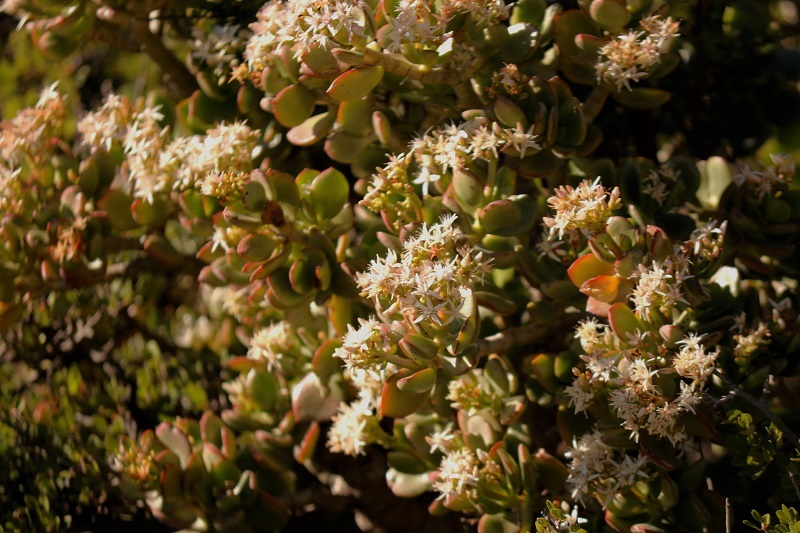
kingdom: Plantae
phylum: Tracheophyta
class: Magnoliopsida
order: Saxifragales
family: Crassulaceae
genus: Crassula
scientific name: Crassula ovata
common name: Jade plant
